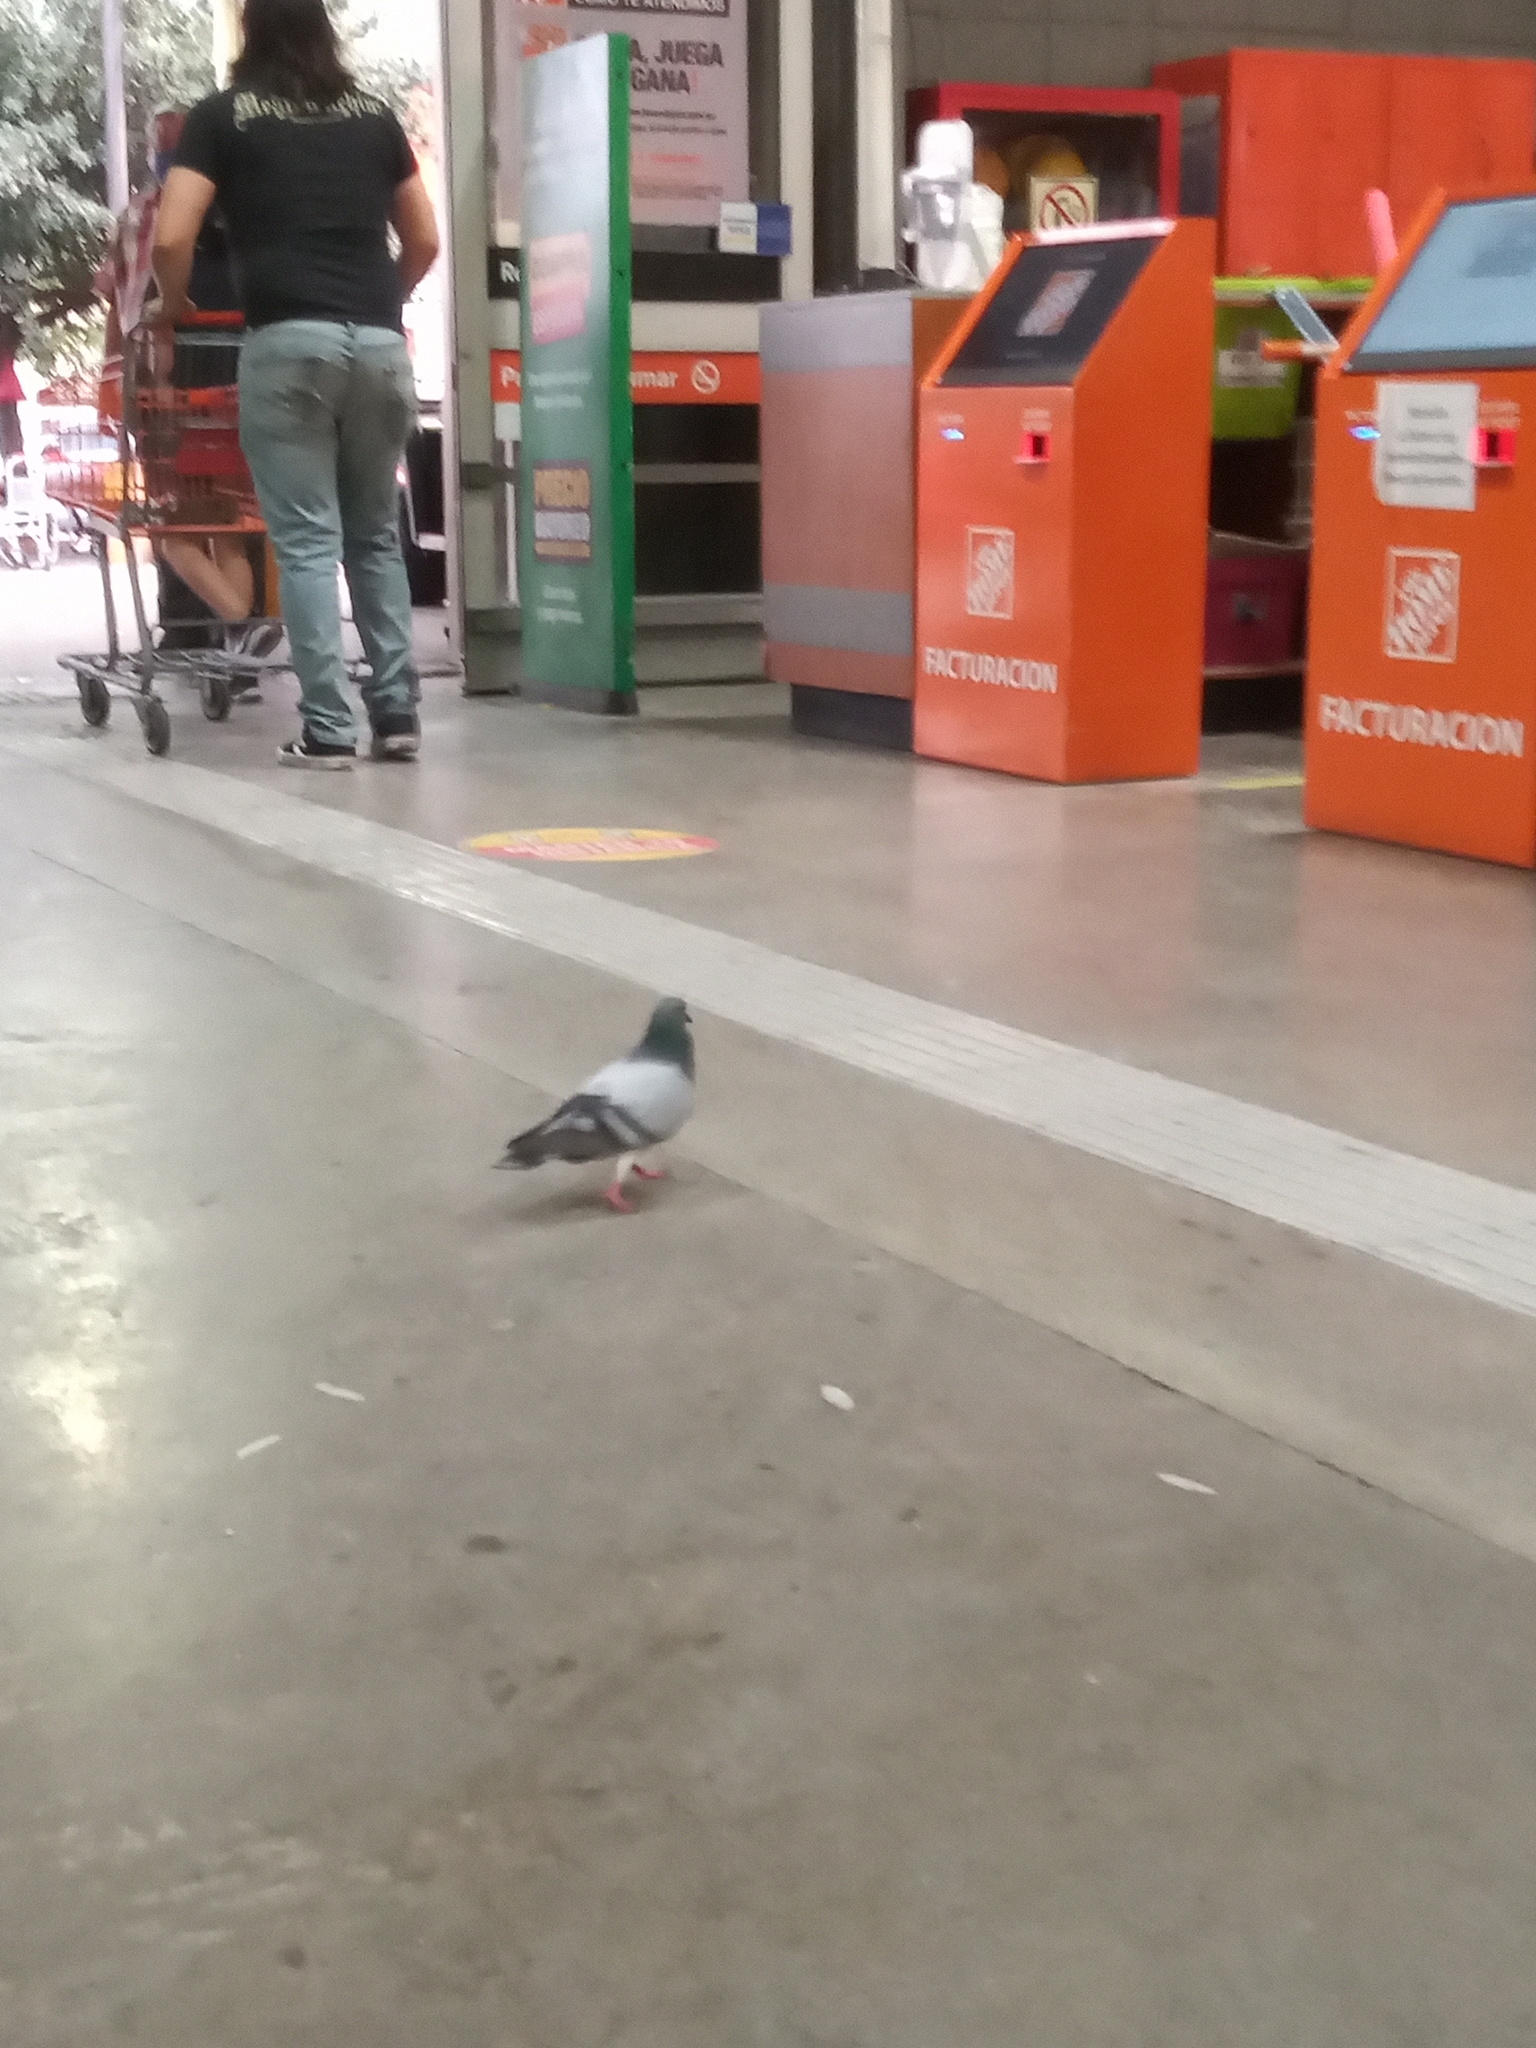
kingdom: Animalia
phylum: Chordata
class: Aves
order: Columbiformes
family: Columbidae
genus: Columba
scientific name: Columba livia
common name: Rock pigeon
